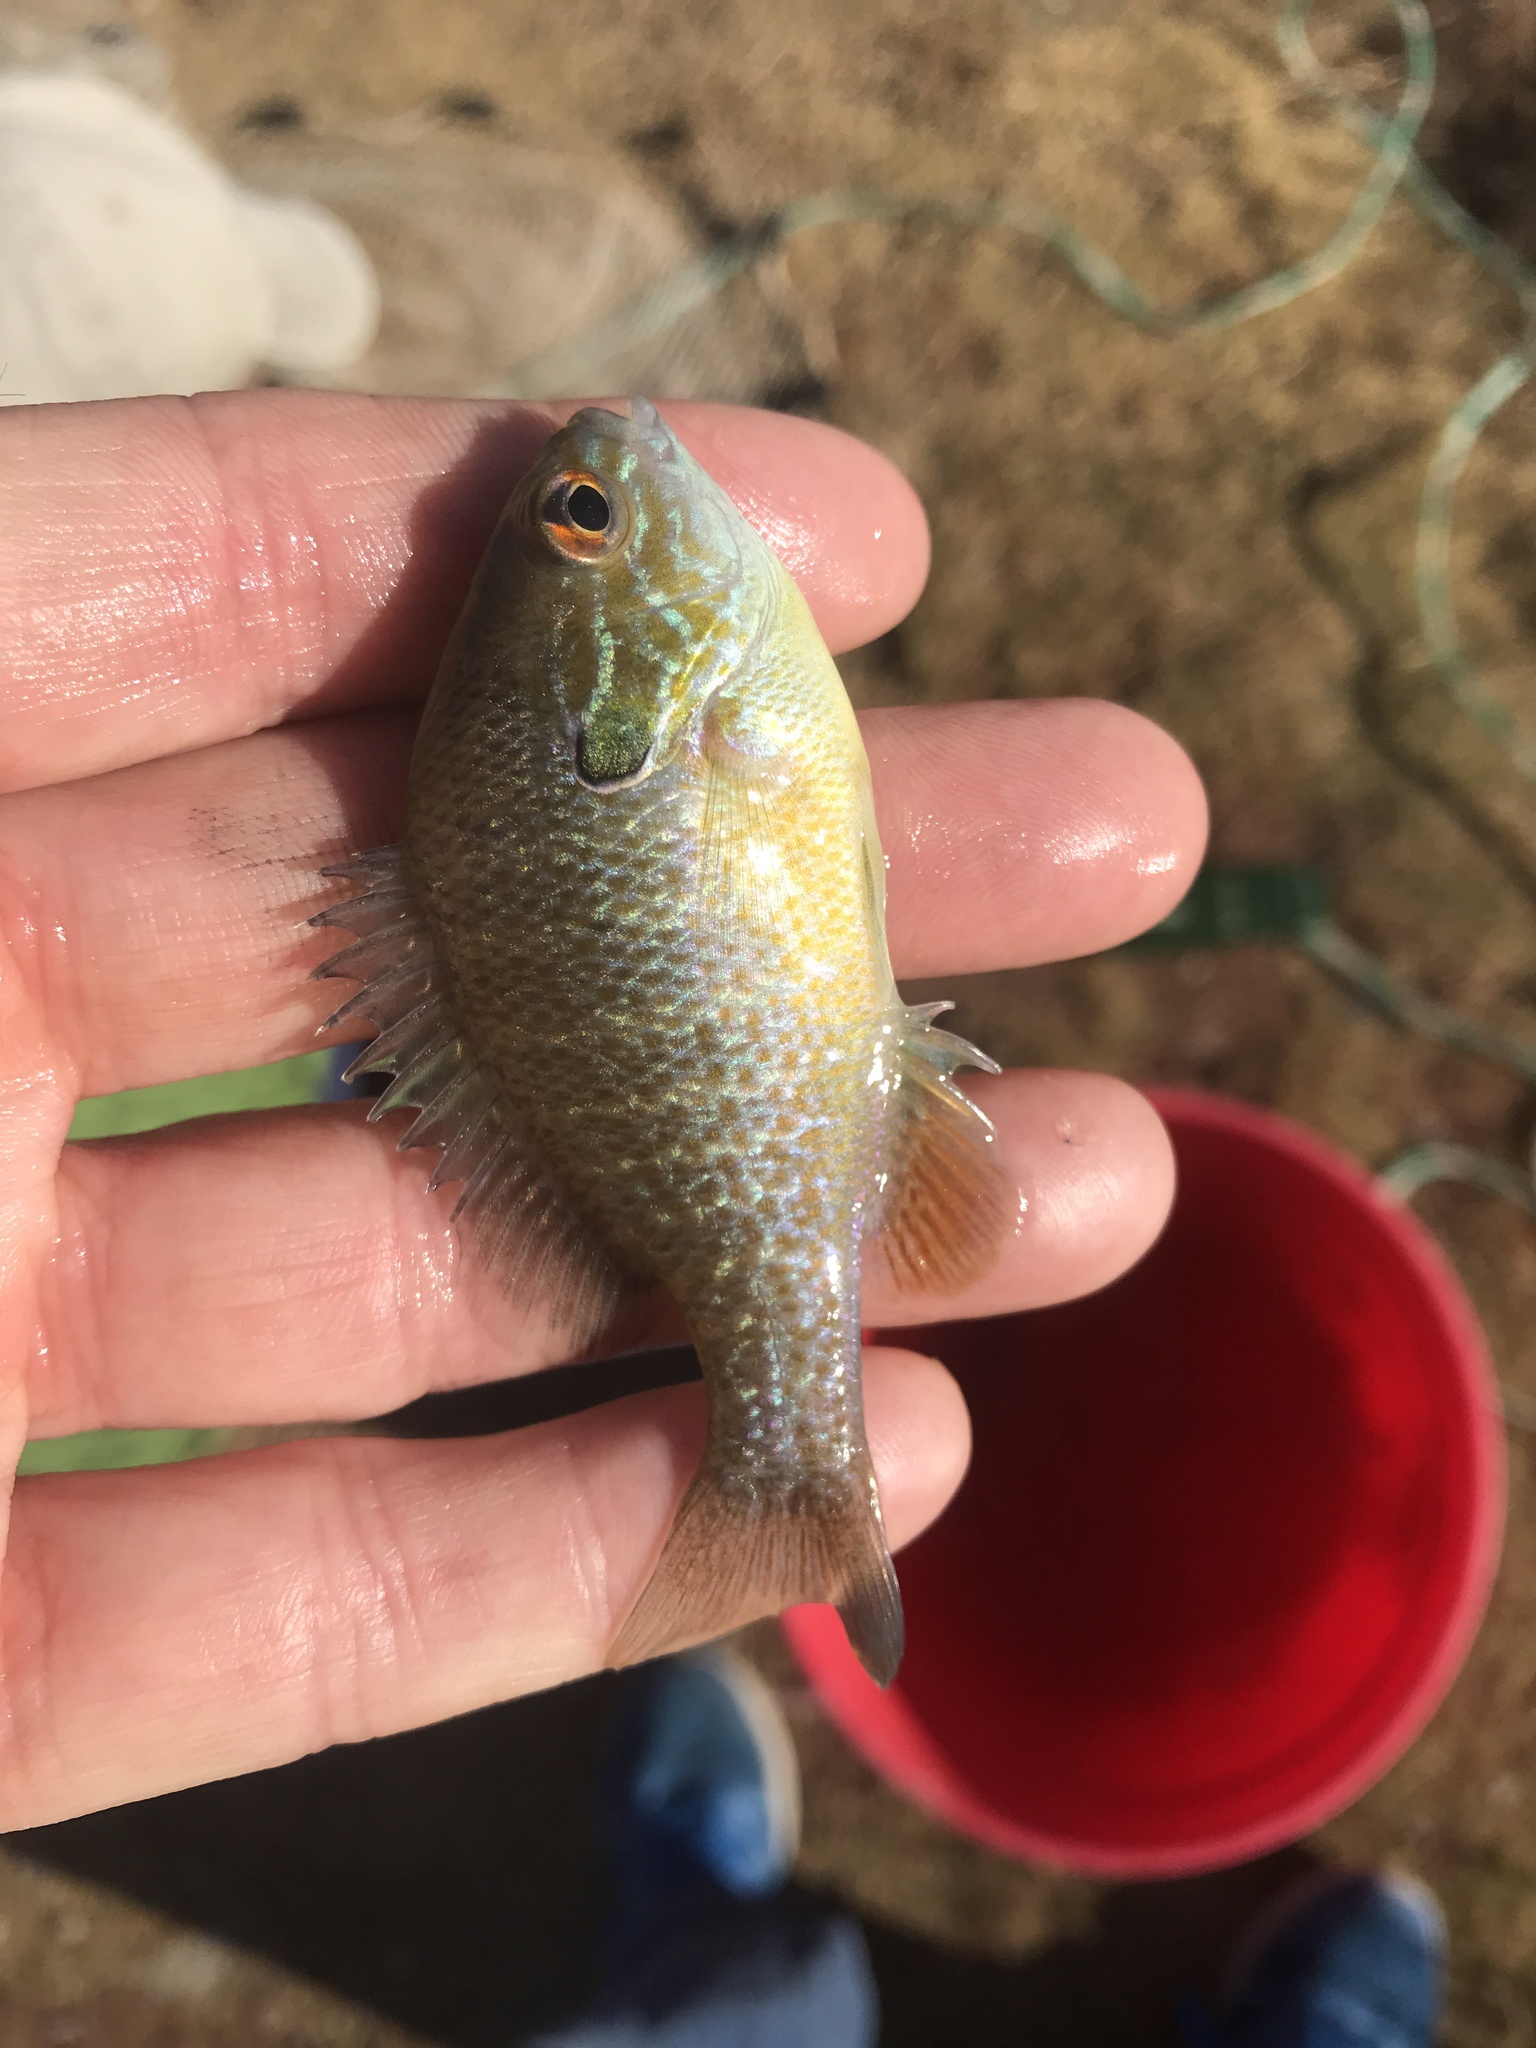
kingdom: Animalia
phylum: Chordata
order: Perciformes
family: Centrarchidae
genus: Lepomis
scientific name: Lepomis megalotis
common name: Longear sunfish
